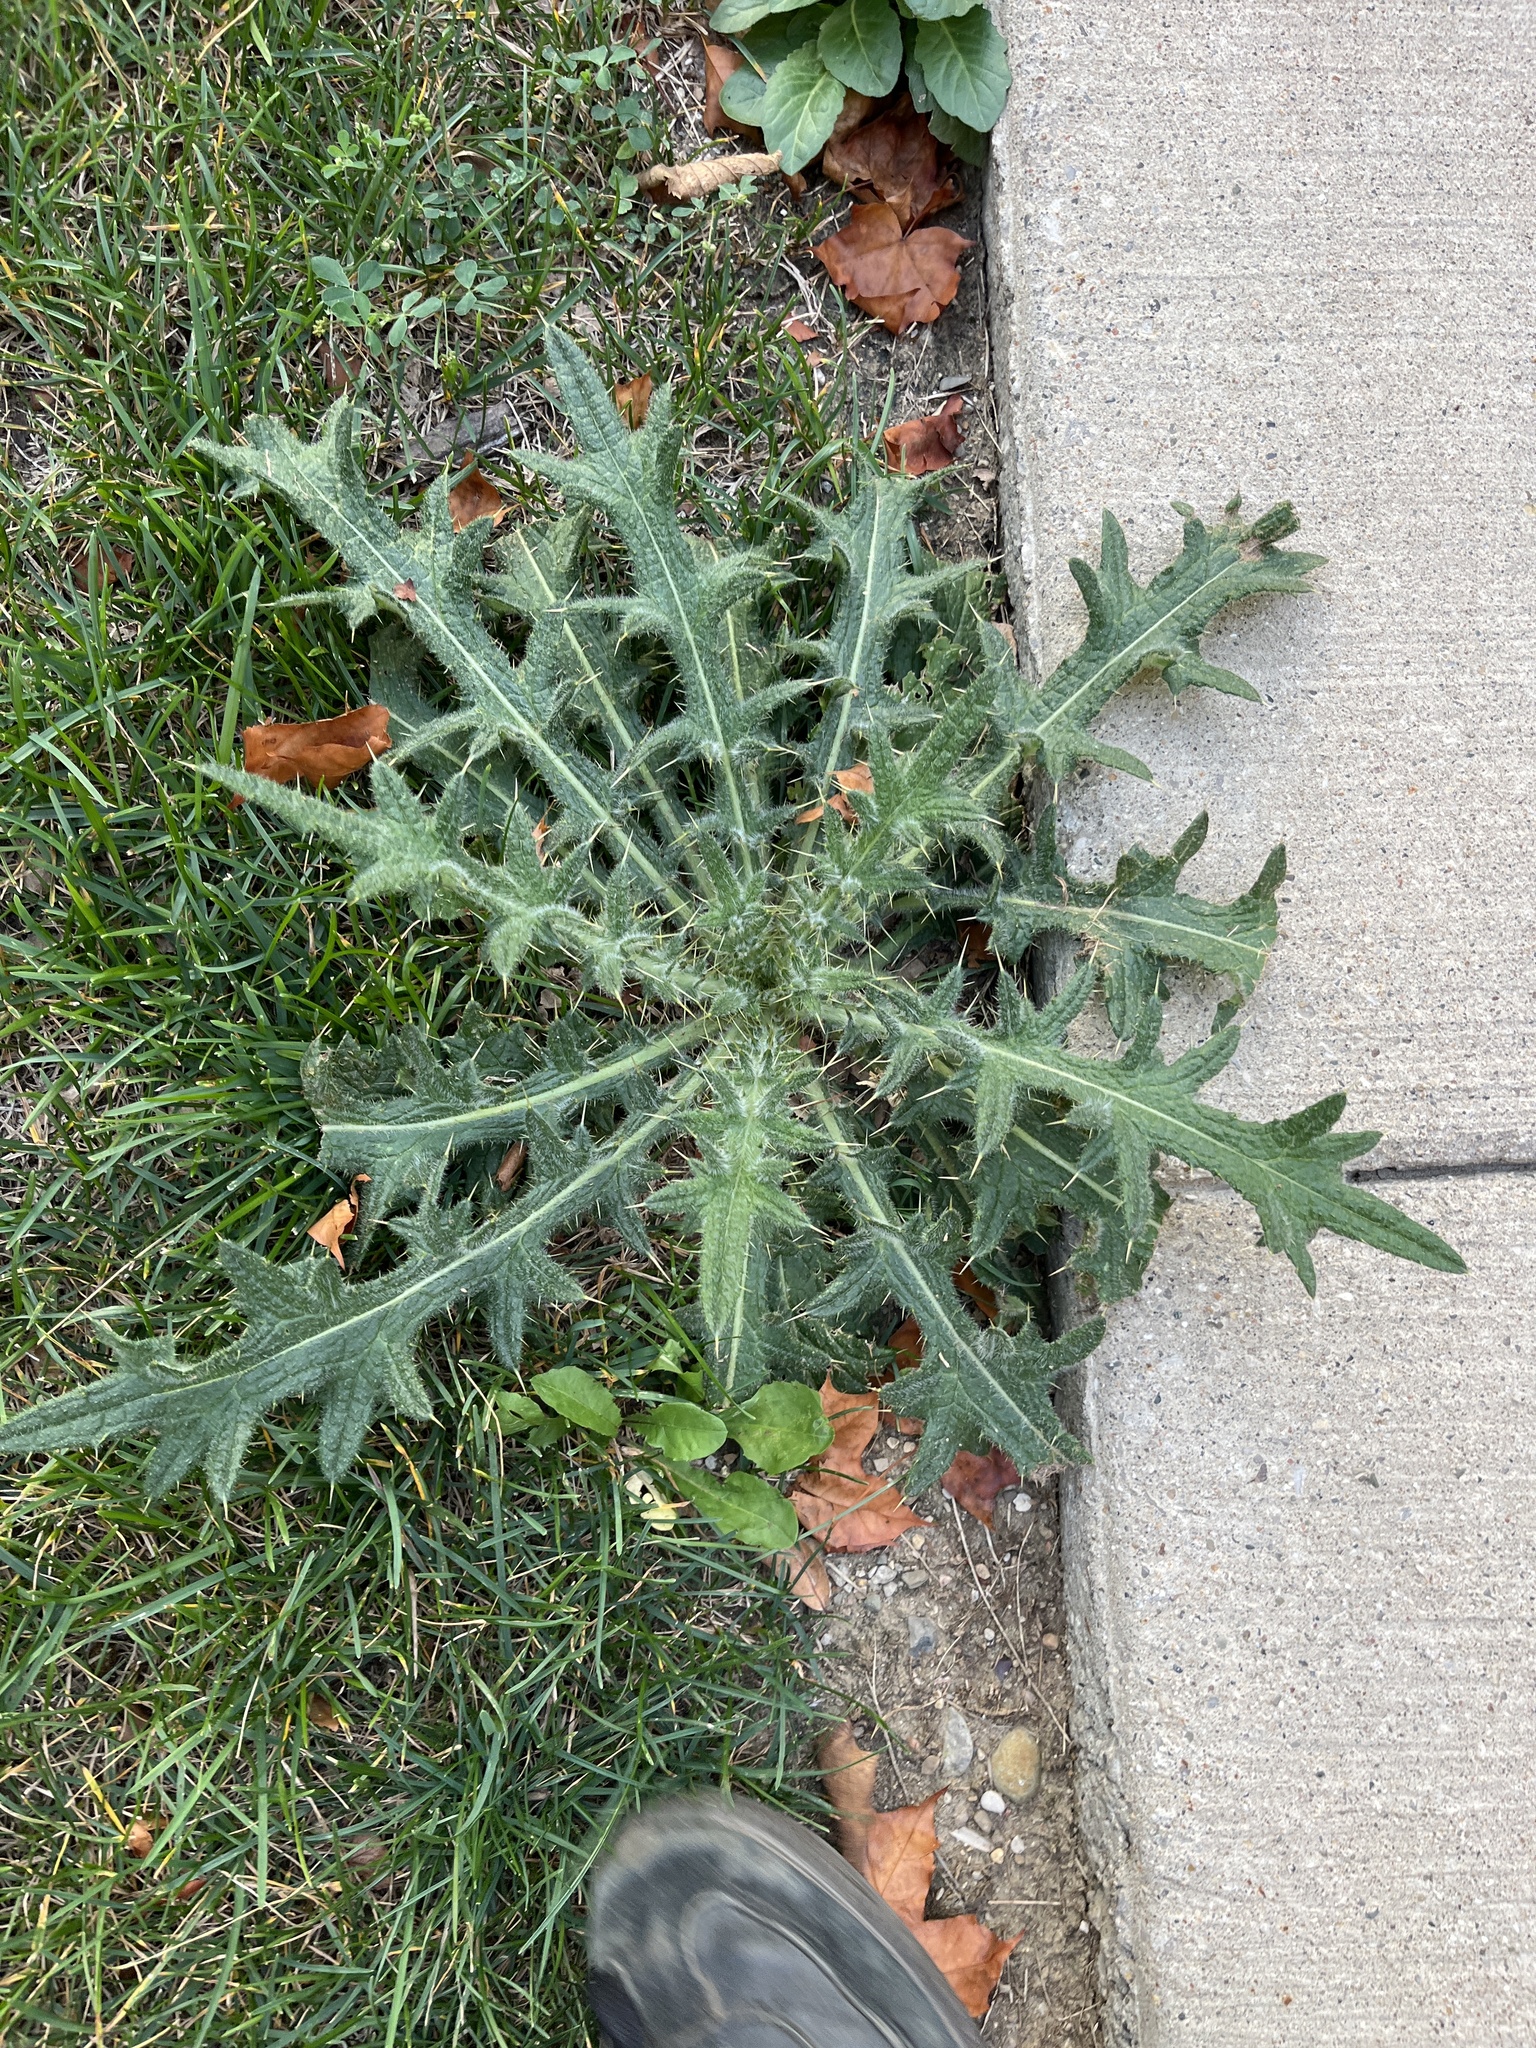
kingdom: Plantae
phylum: Tracheophyta
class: Magnoliopsida
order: Asterales
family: Asteraceae
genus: Cirsium
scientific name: Cirsium vulgare
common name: Bull thistle
